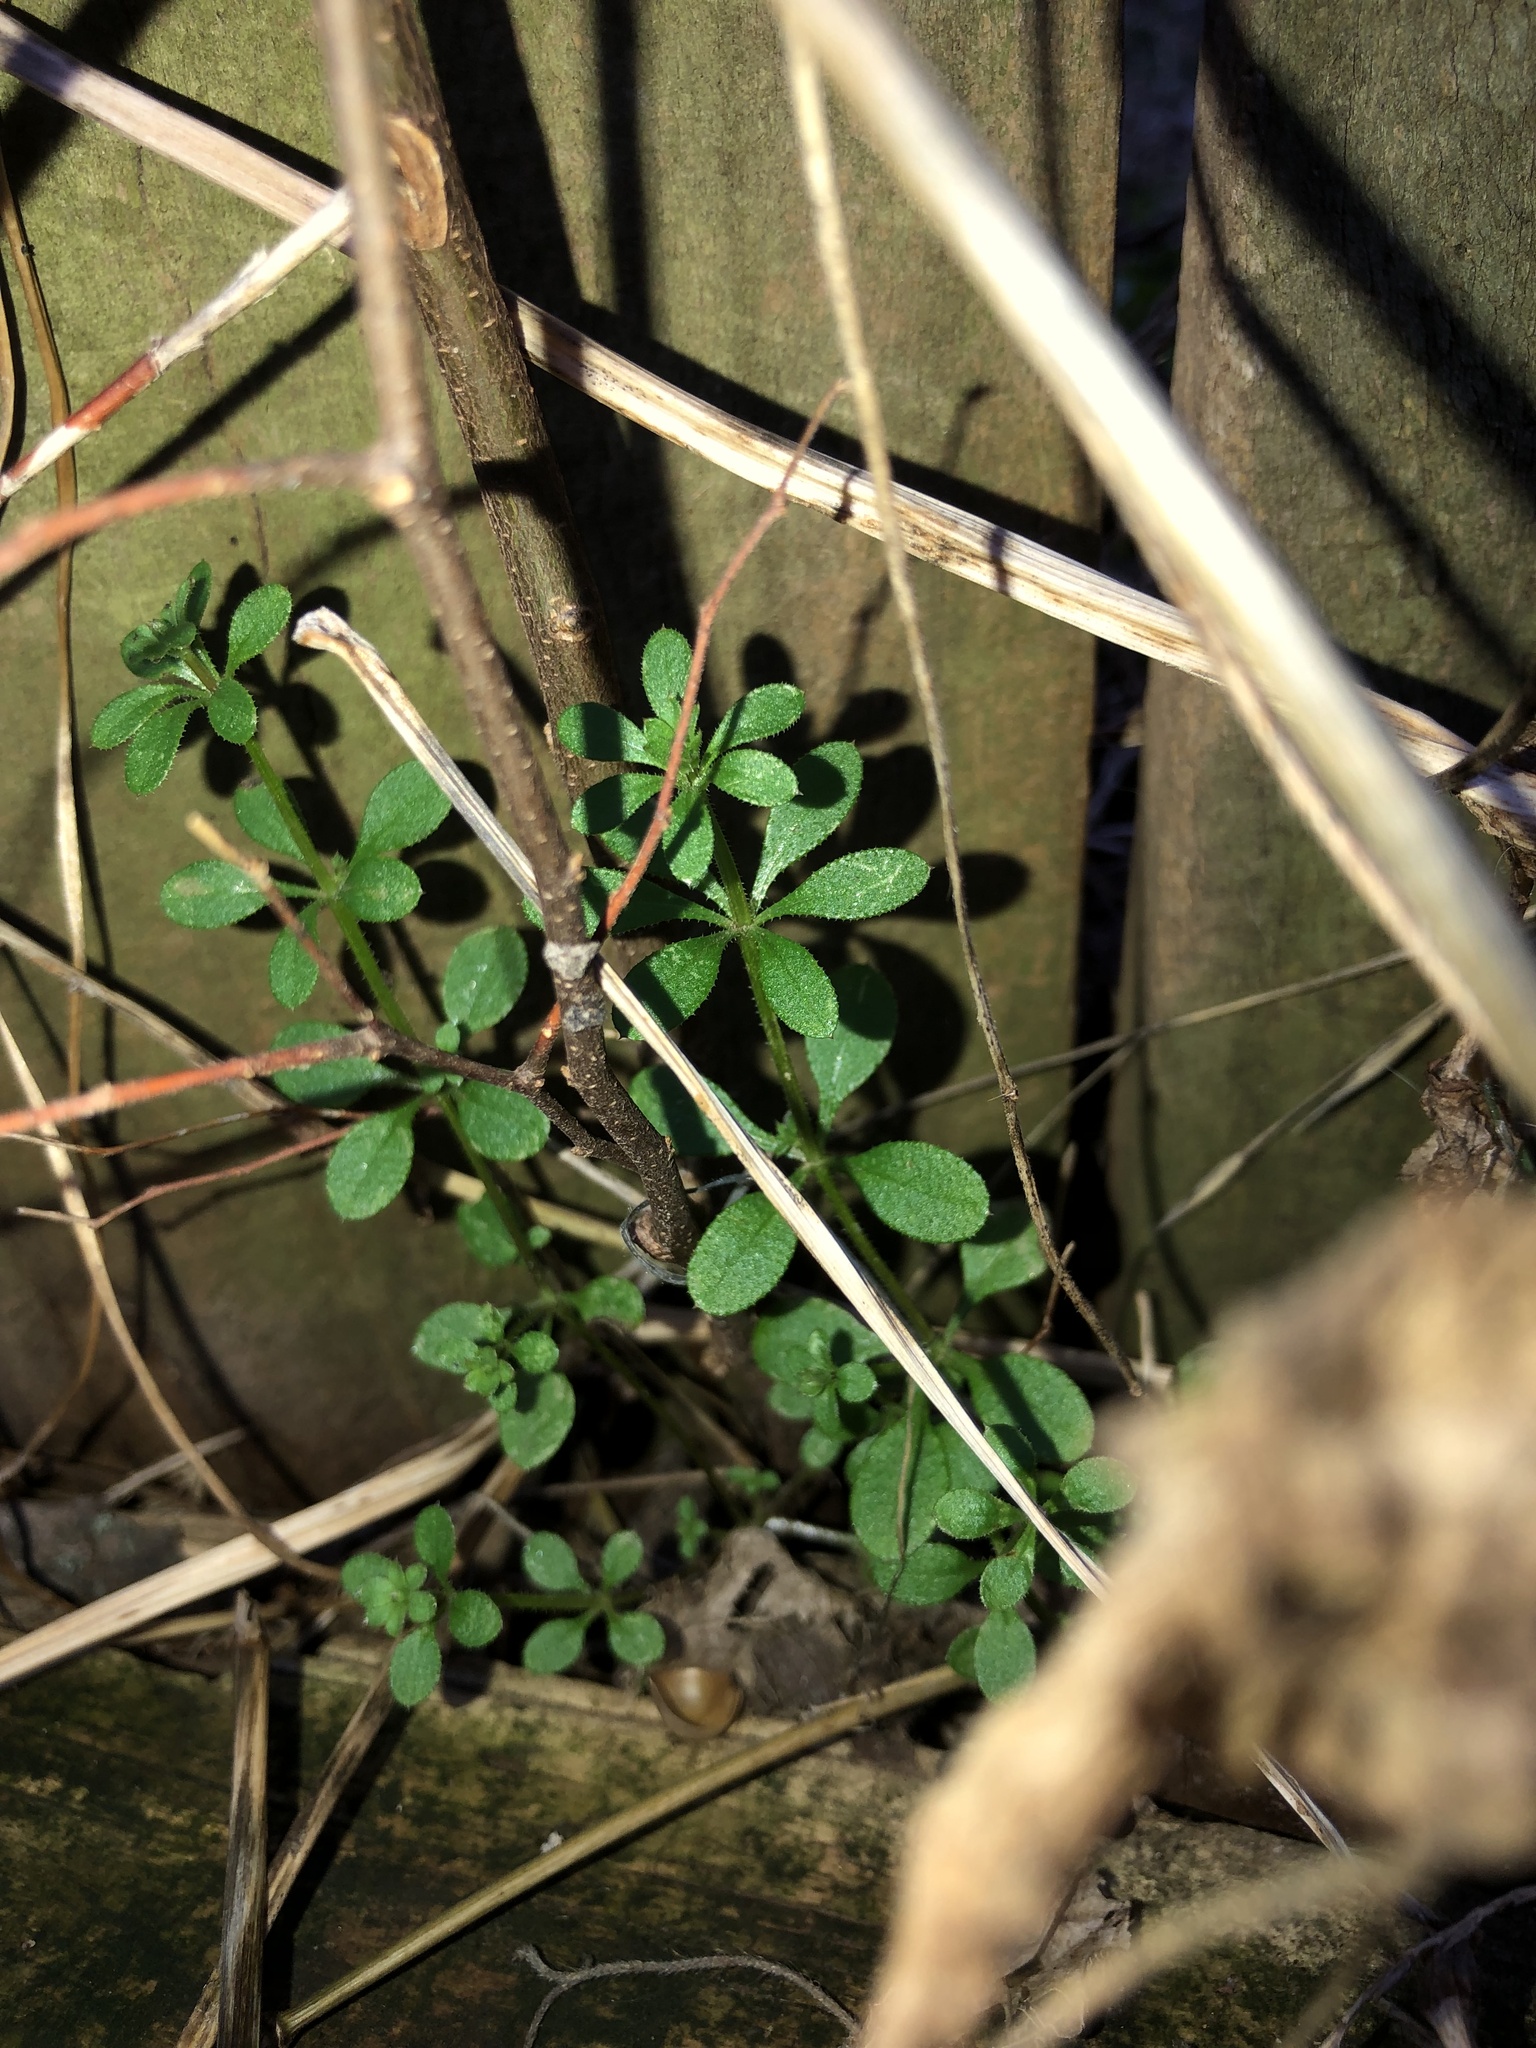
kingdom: Plantae
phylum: Tracheophyta
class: Magnoliopsida
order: Gentianales
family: Rubiaceae
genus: Galium
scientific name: Galium aparine
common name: Cleavers
